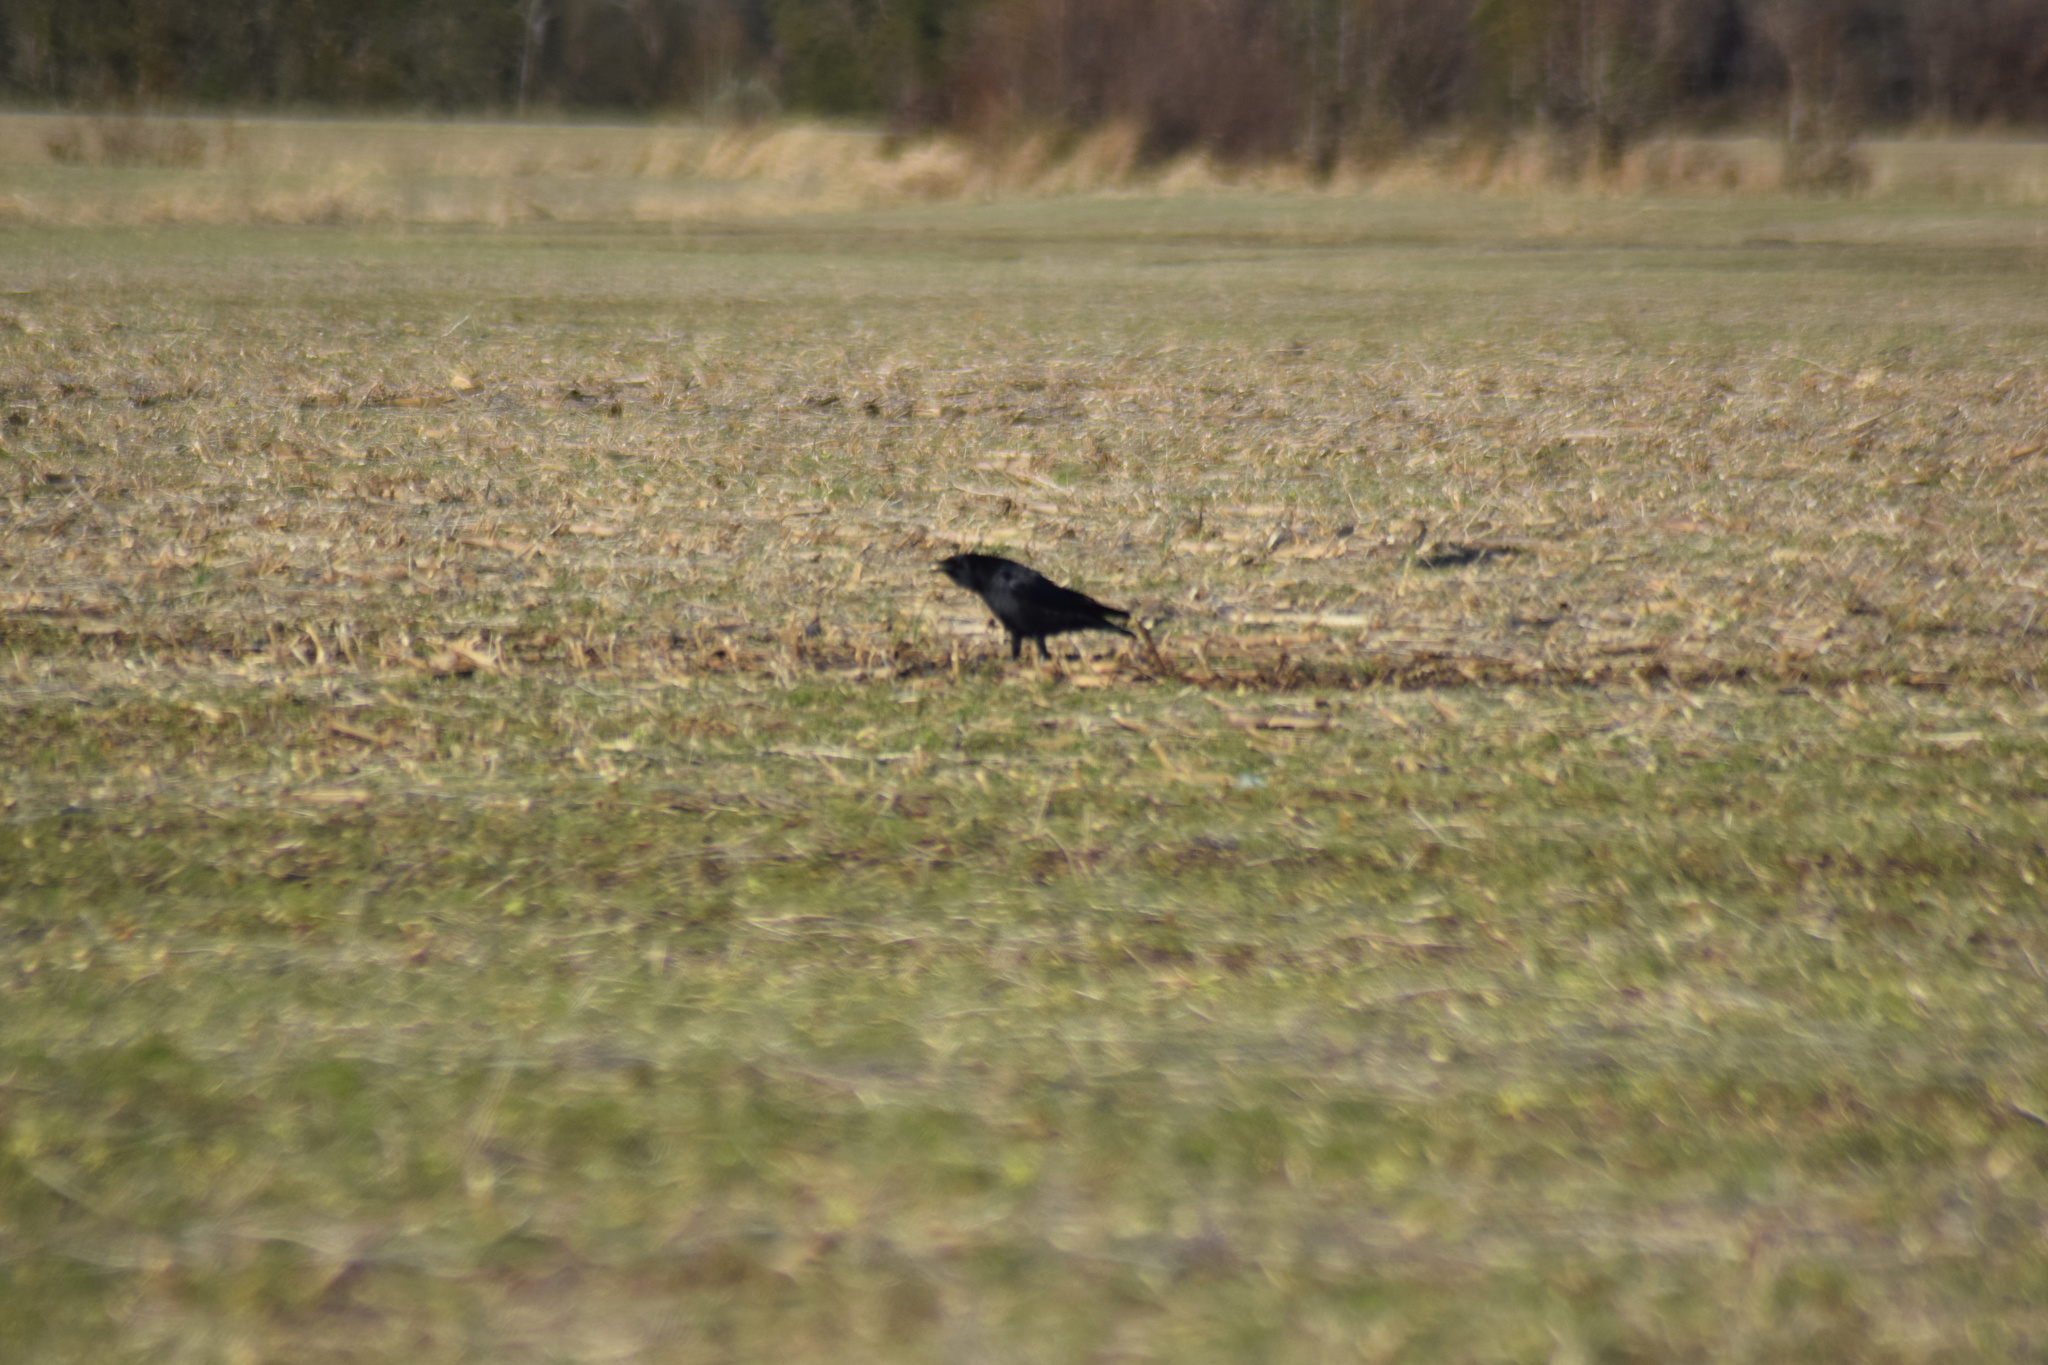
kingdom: Animalia
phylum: Chordata
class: Aves
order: Passeriformes
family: Corvidae
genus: Corvus
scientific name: Corvus
